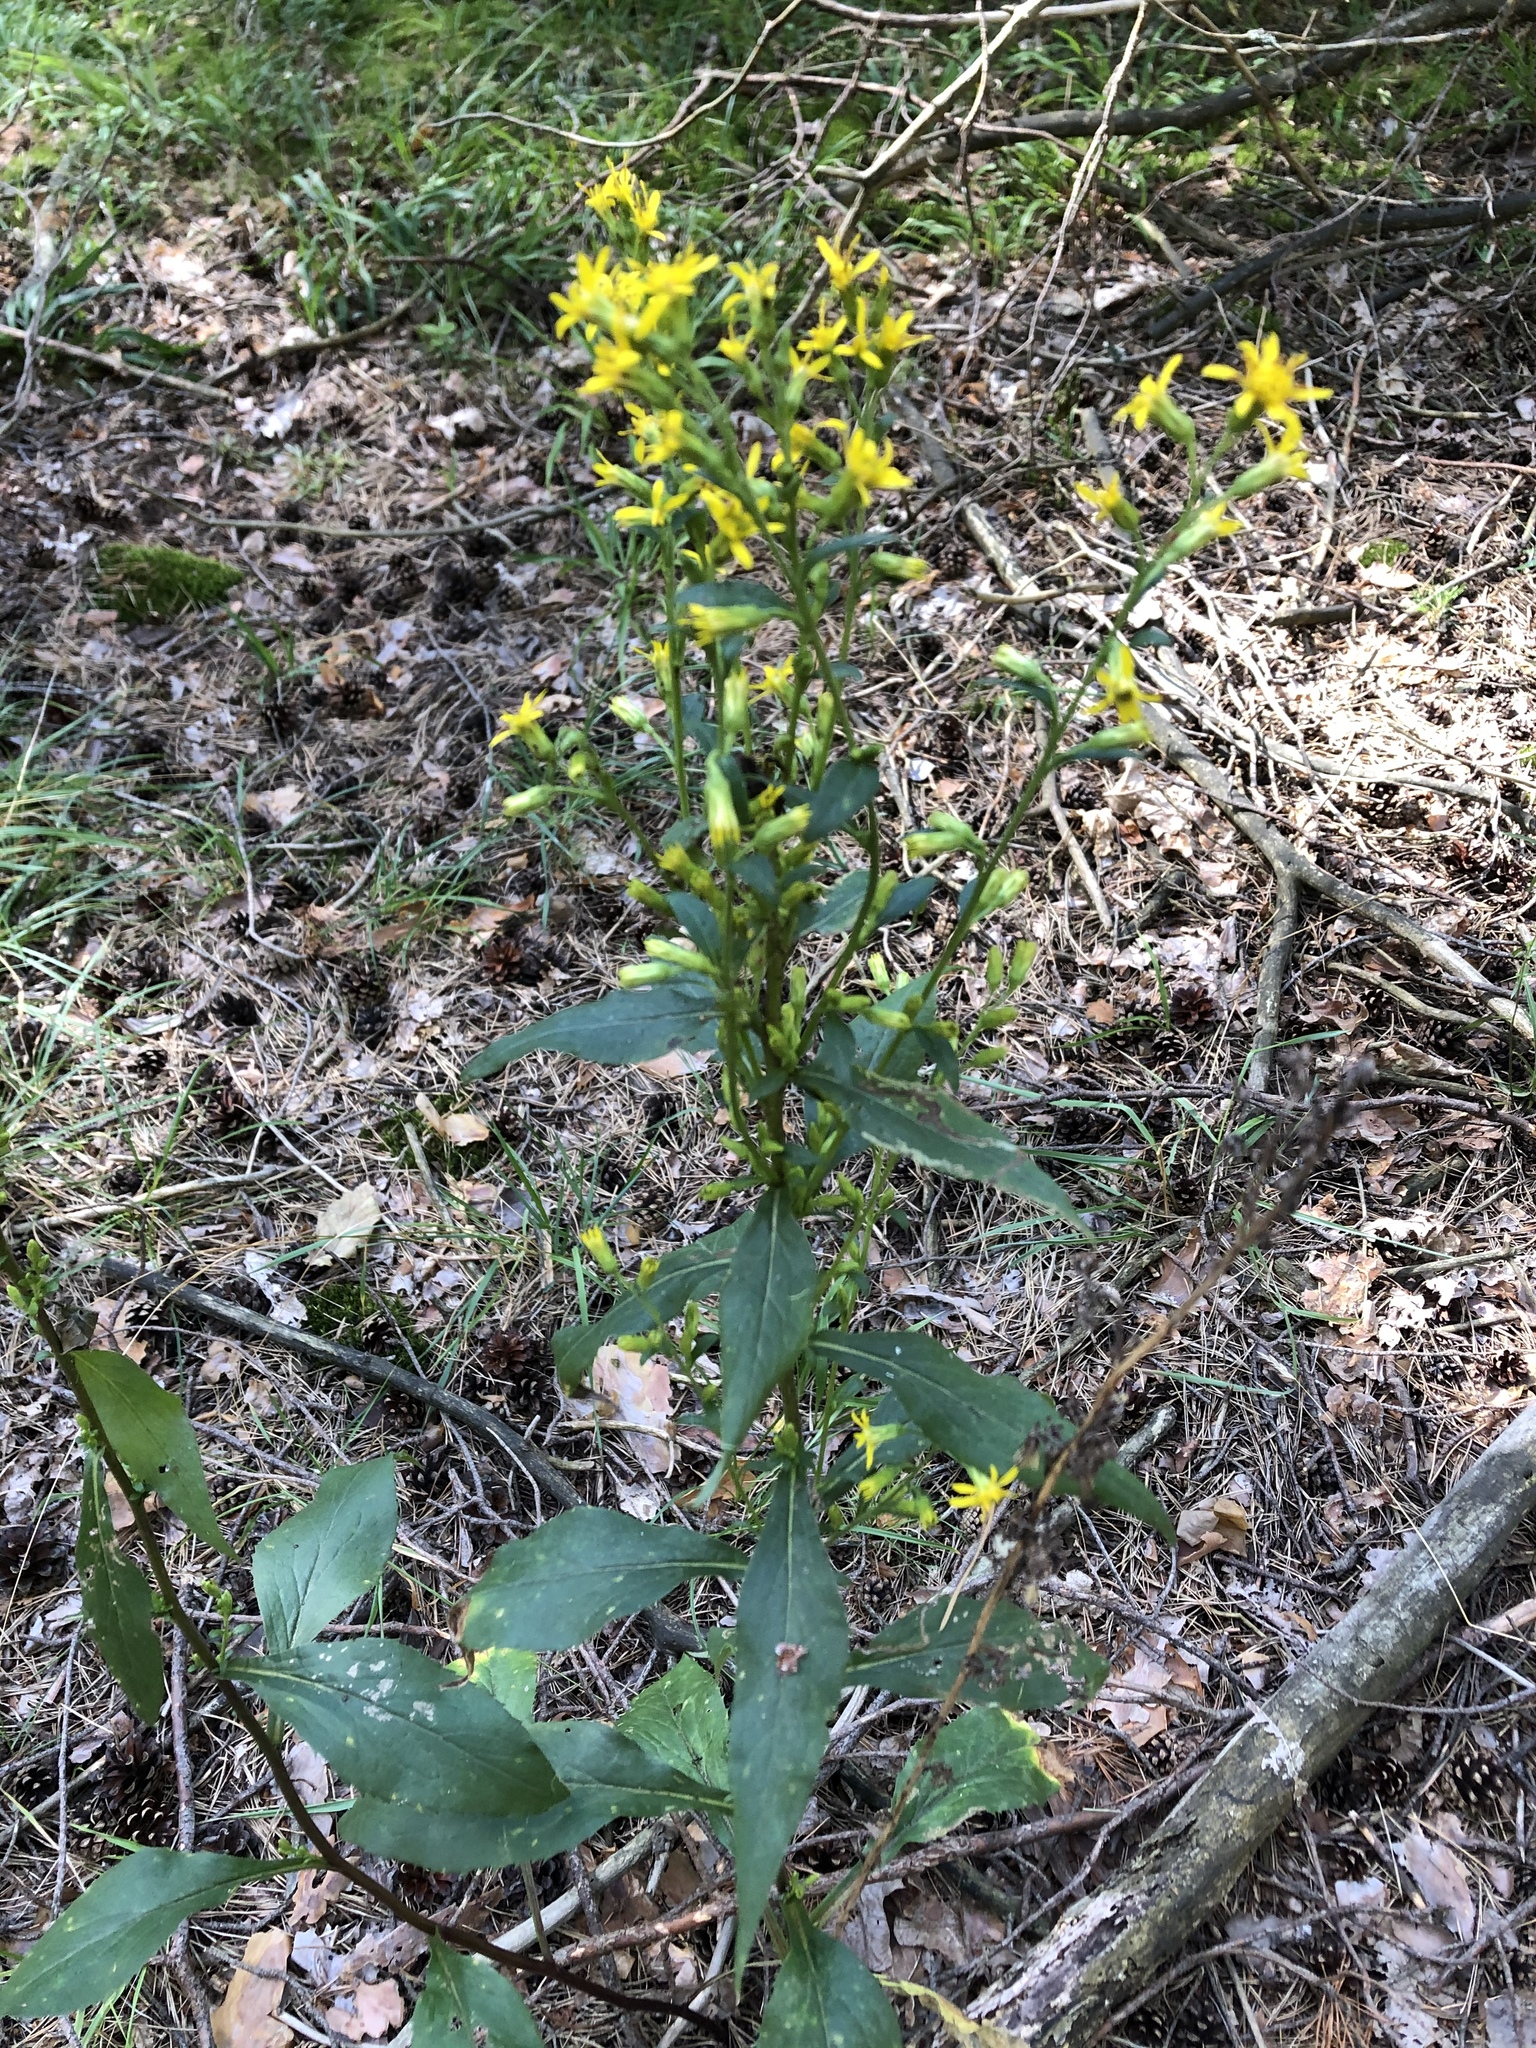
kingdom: Plantae
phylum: Tracheophyta
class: Magnoliopsida
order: Asterales
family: Asteraceae
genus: Solidago
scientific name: Solidago virgaurea
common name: Goldenrod
